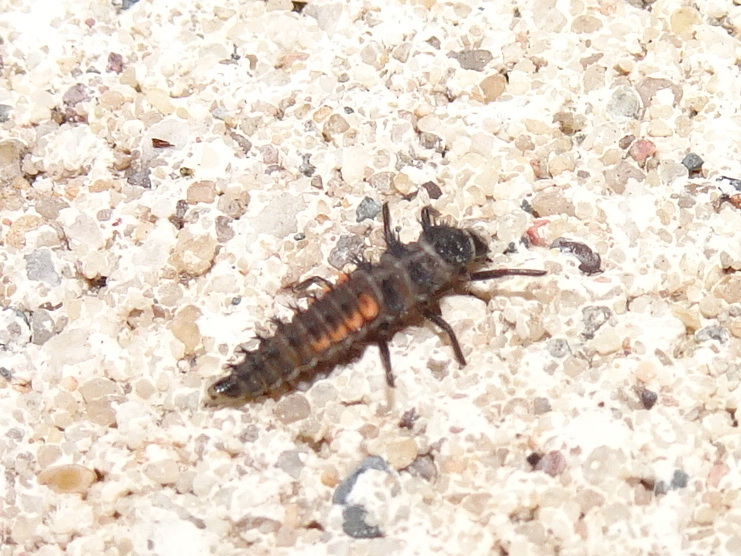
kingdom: Animalia
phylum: Arthropoda
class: Insecta
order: Coleoptera
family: Coccinellidae
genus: Harmonia
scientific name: Harmonia axyridis
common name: Harlequin ladybird
